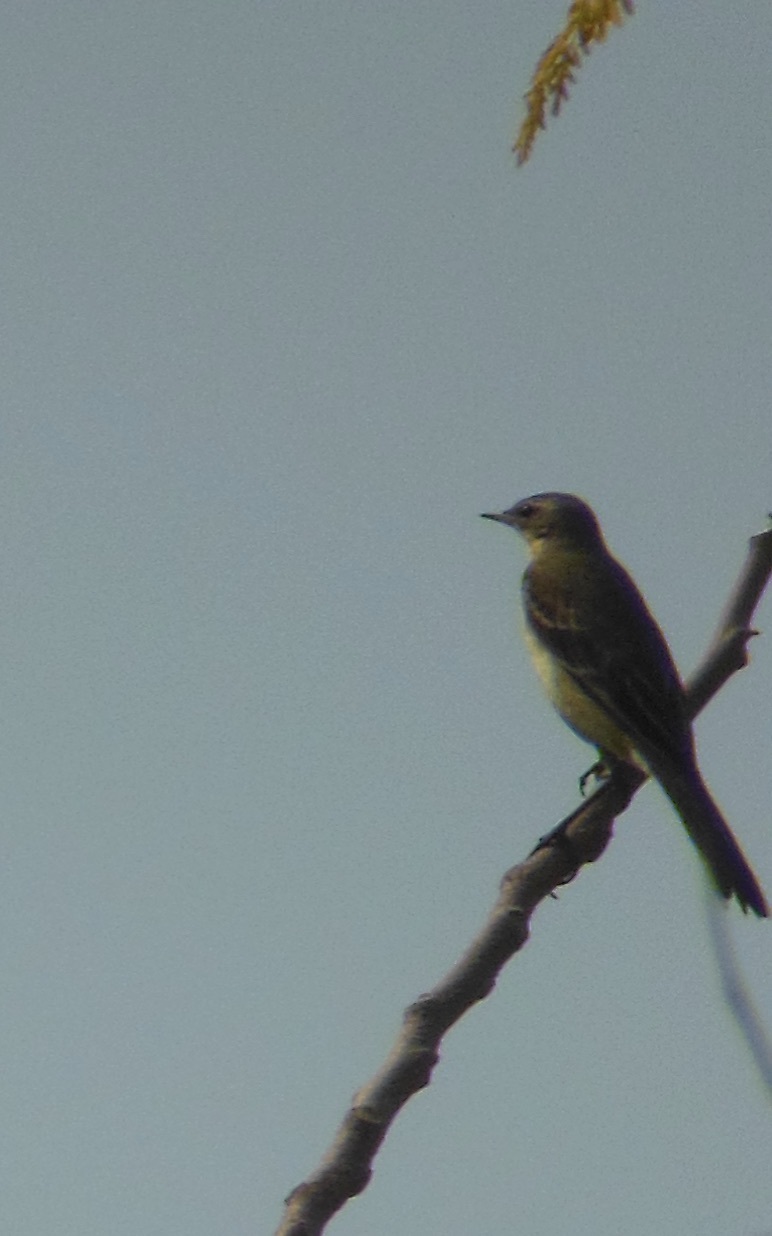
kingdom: Animalia
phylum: Chordata
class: Aves
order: Passeriformes
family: Motacillidae
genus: Motacilla
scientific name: Motacilla flava
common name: Western yellow wagtail
